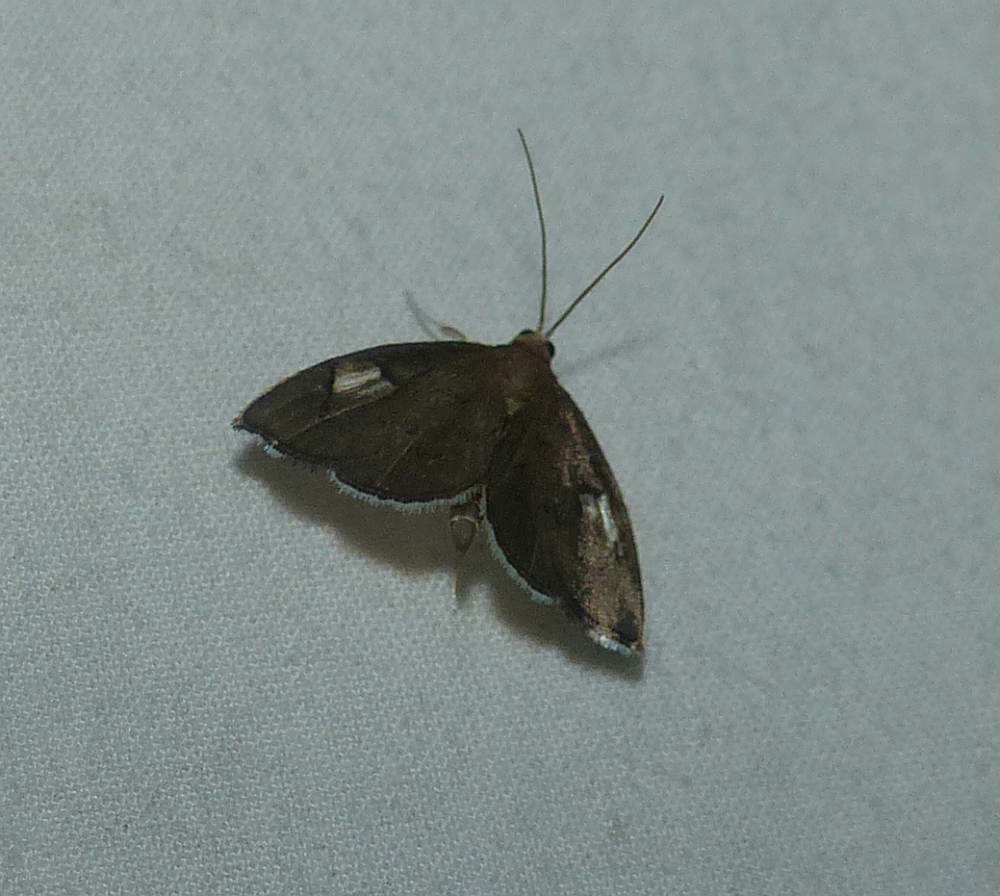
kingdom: Animalia
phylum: Arthropoda
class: Insecta
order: Lepidoptera
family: Crambidae
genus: Perispasta
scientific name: Perispasta caeculalis
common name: Titian peale's moth
